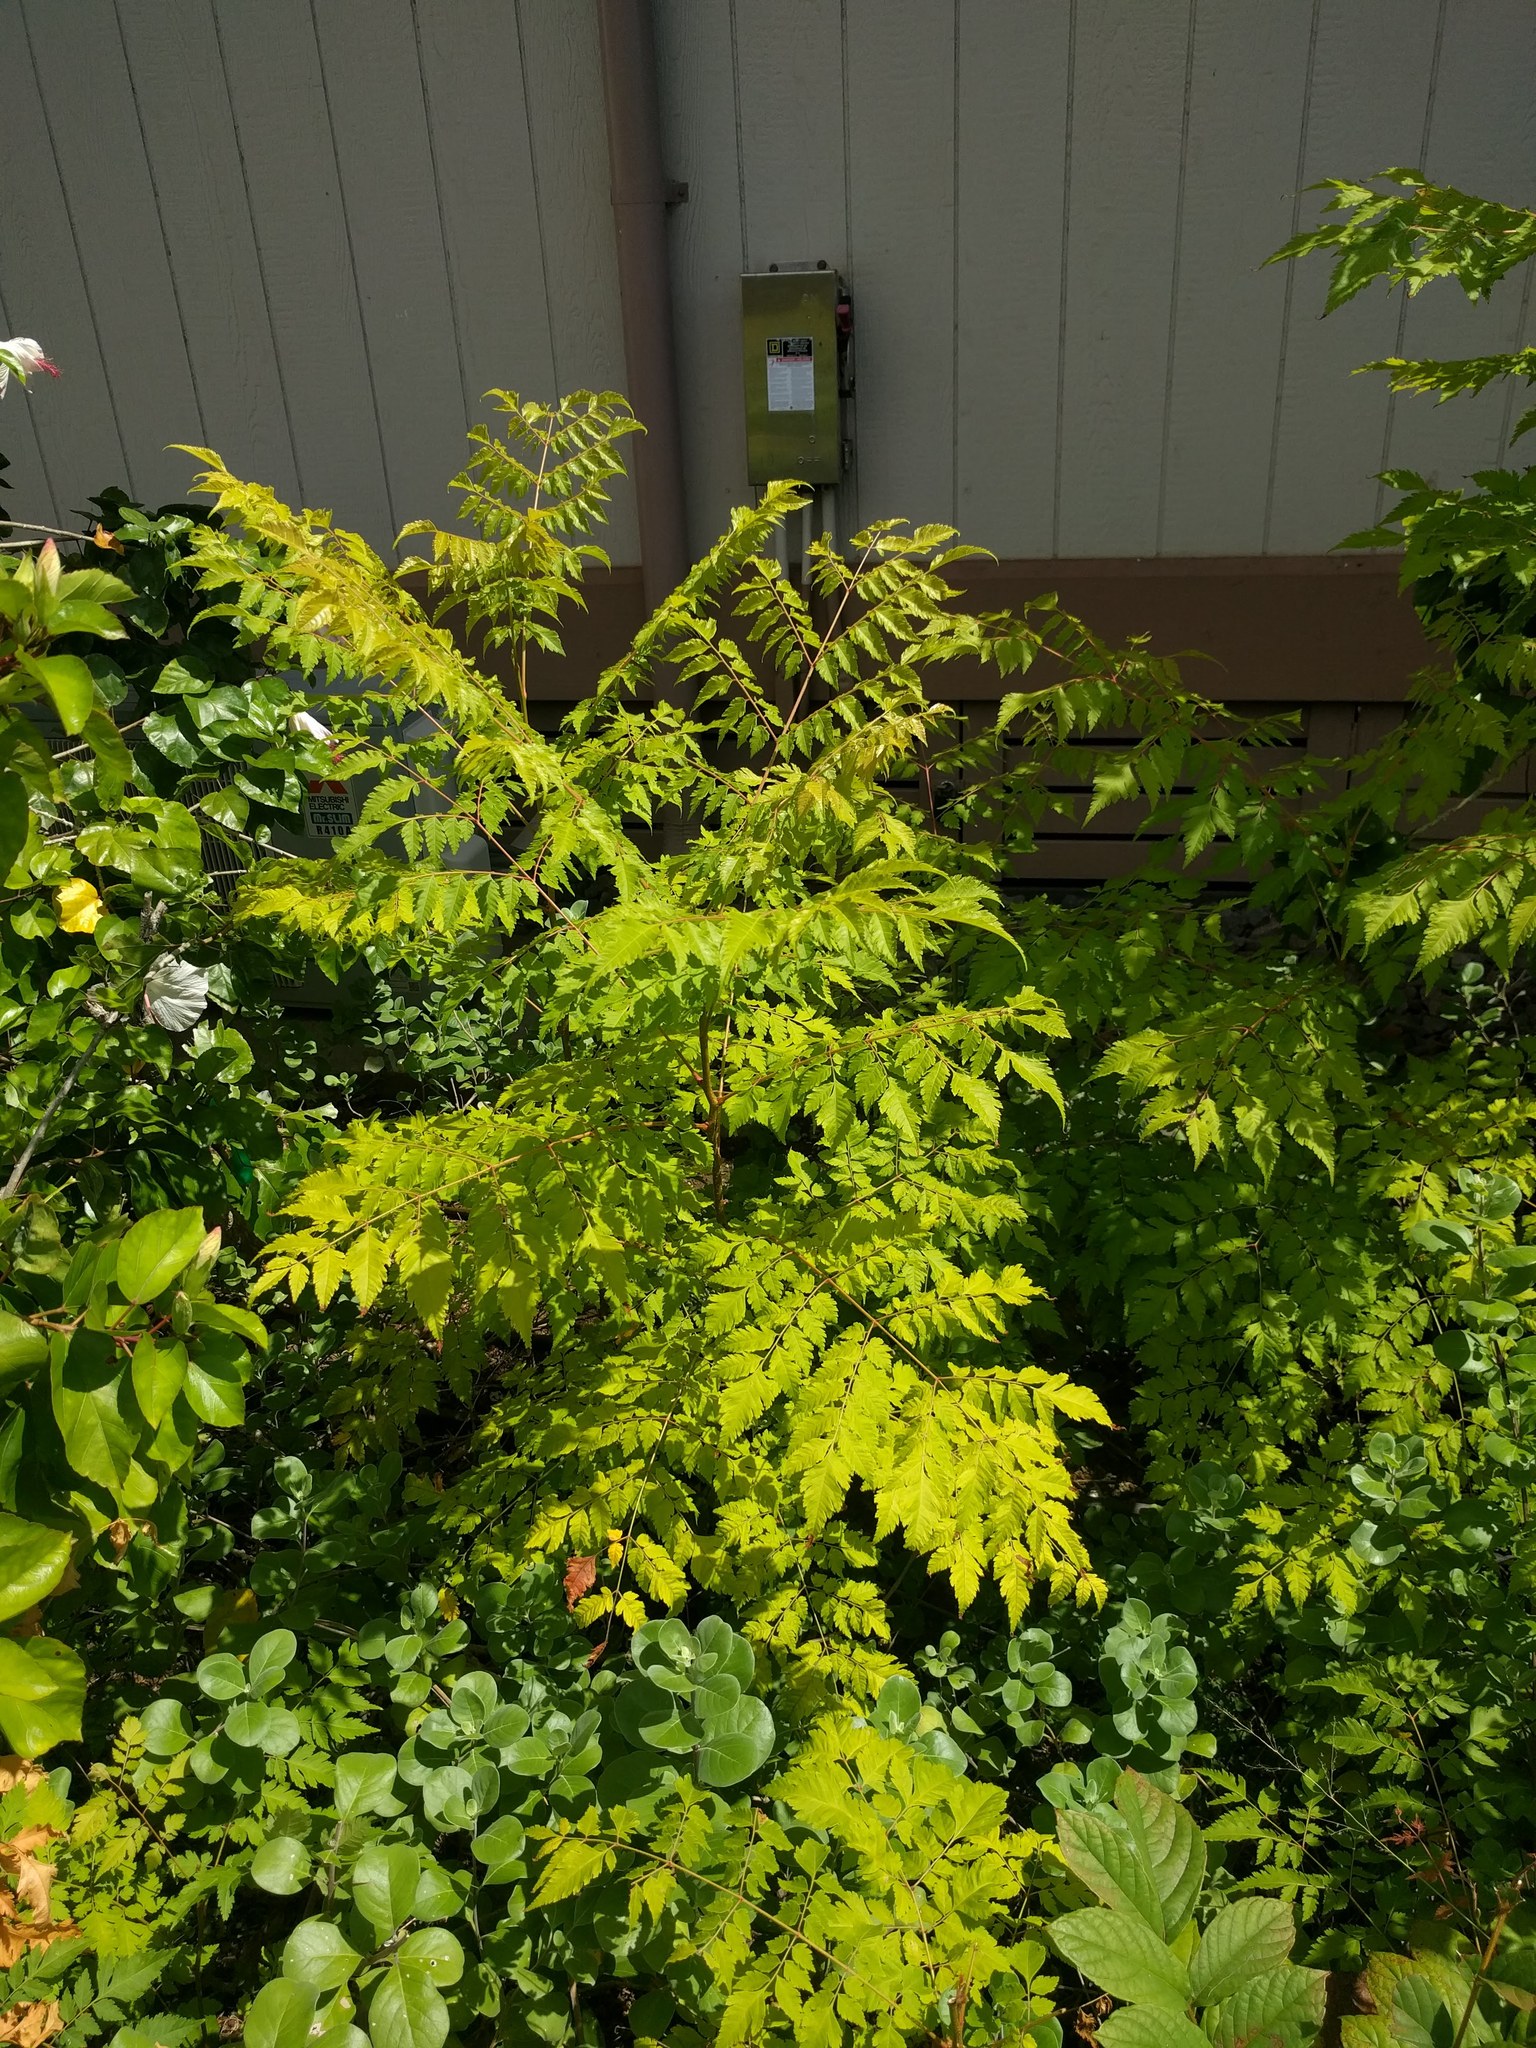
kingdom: Plantae
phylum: Tracheophyta
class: Magnoliopsida
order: Sapindales
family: Sapindaceae
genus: Koelreuteria
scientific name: Koelreuteria elegans
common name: Chinese flame tree
